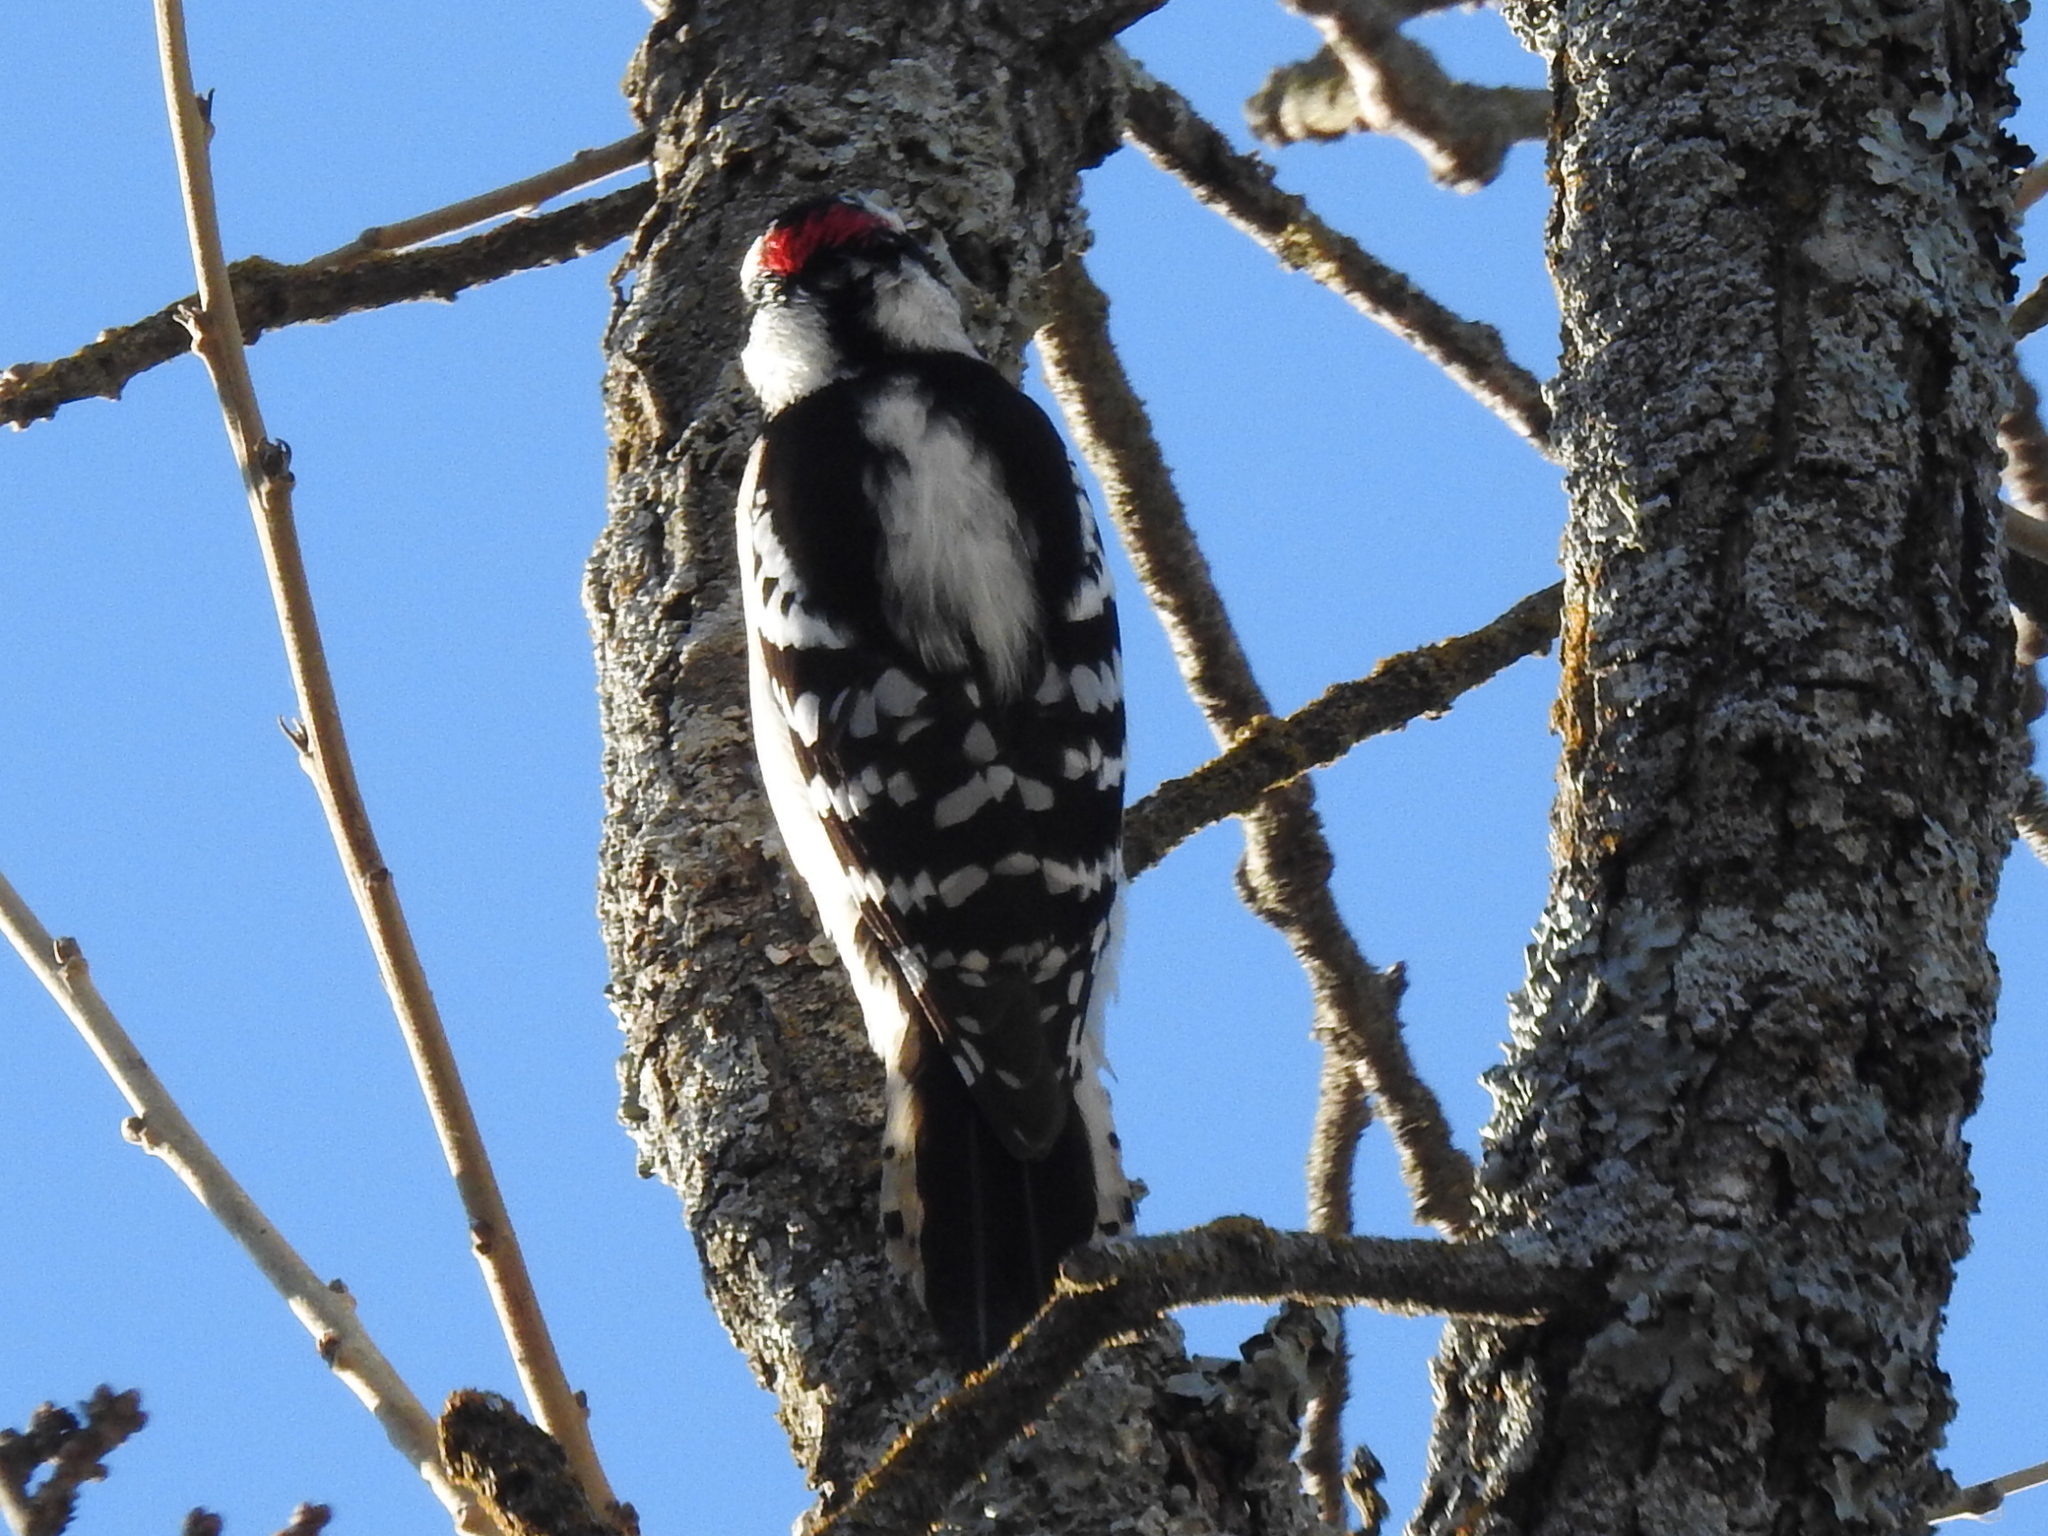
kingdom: Animalia
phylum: Chordata
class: Aves
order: Piciformes
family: Picidae
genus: Dryobates
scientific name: Dryobates pubescens
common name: Downy woodpecker
